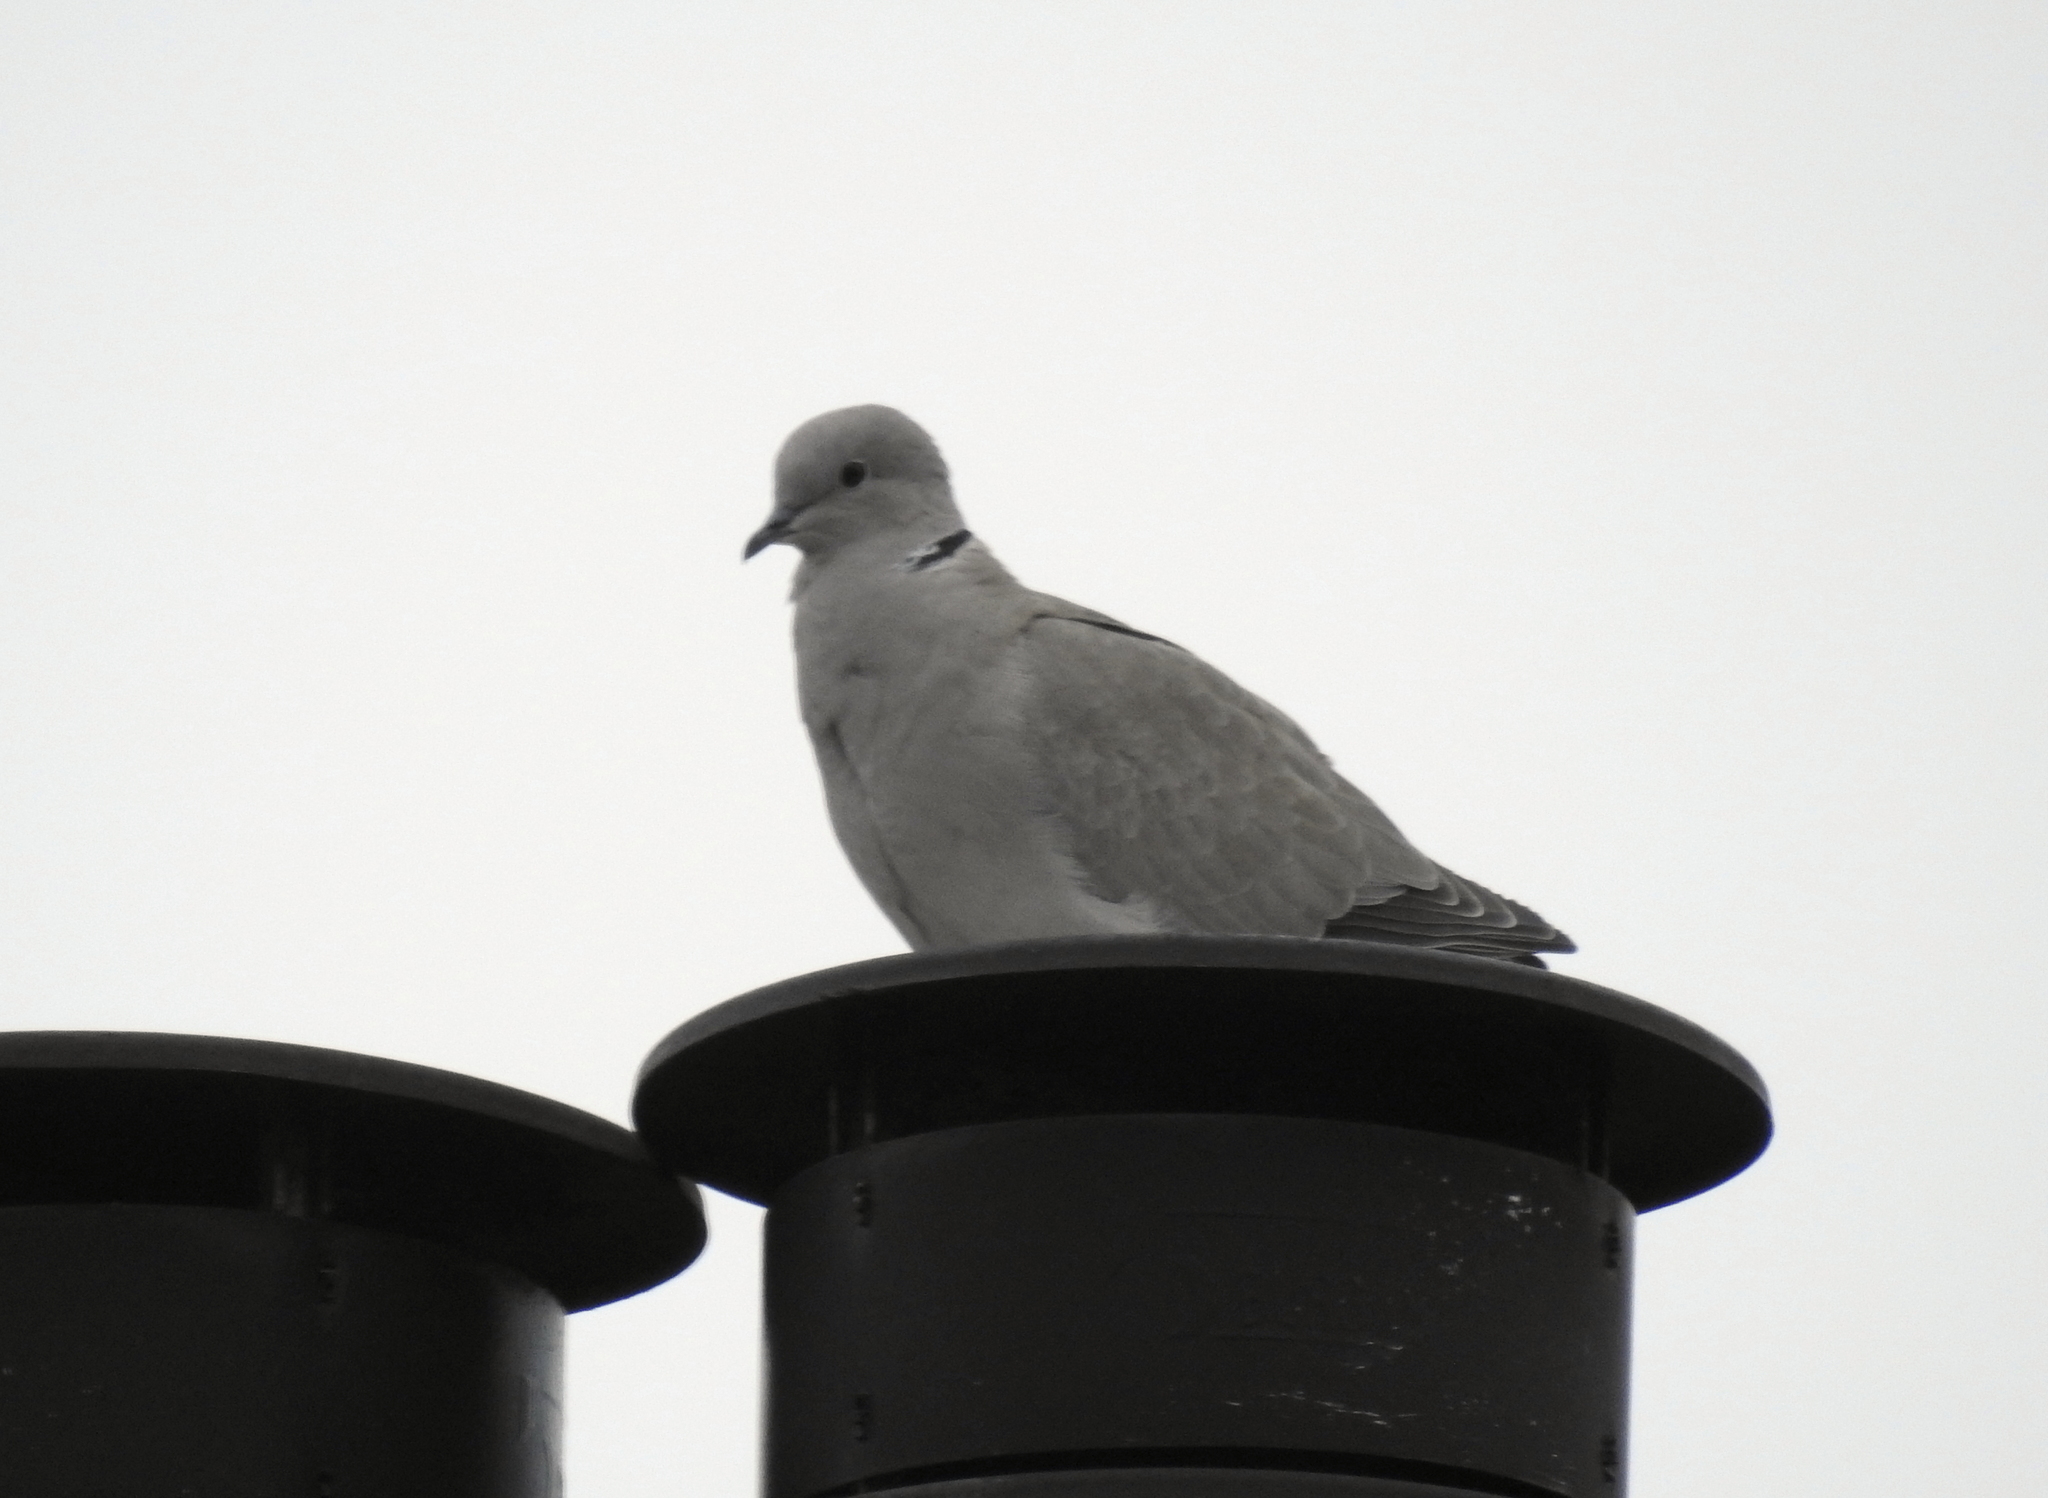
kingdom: Animalia
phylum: Chordata
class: Aves
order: Columbiformes
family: Columbidae
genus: Streptopelia
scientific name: Streptopelia decaocto
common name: Eurasian collared dove
